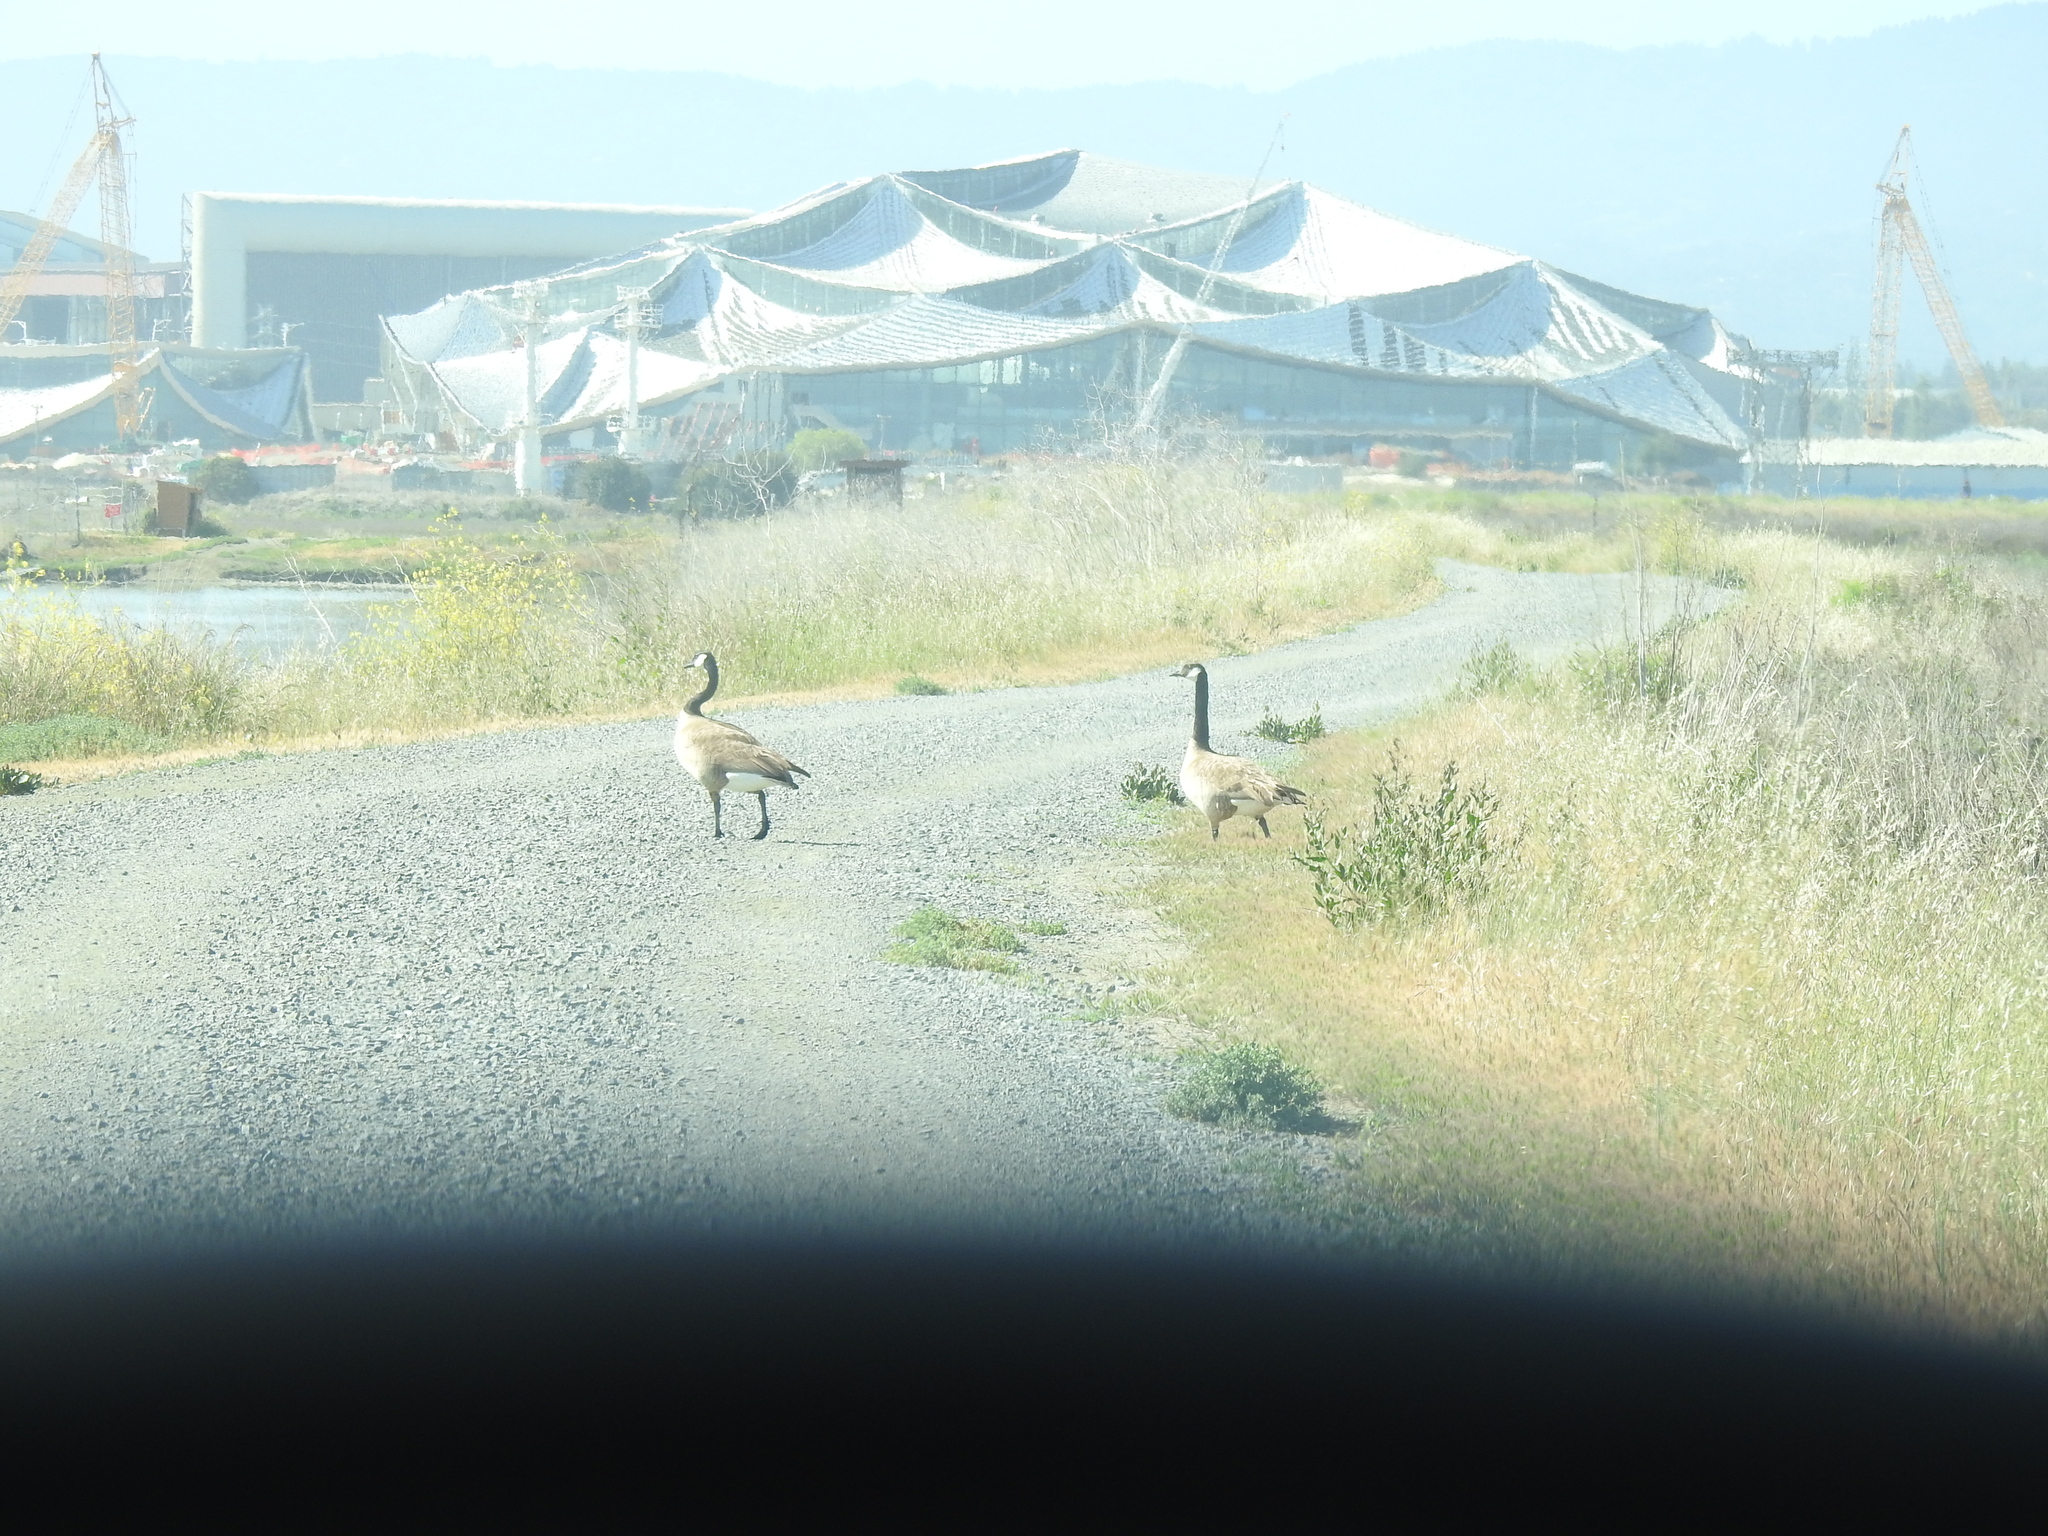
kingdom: Animalia
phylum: Chordata
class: Aves
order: Anseriformes
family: Anatidae
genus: Branta
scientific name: Branta canadensis
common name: Canada goose
